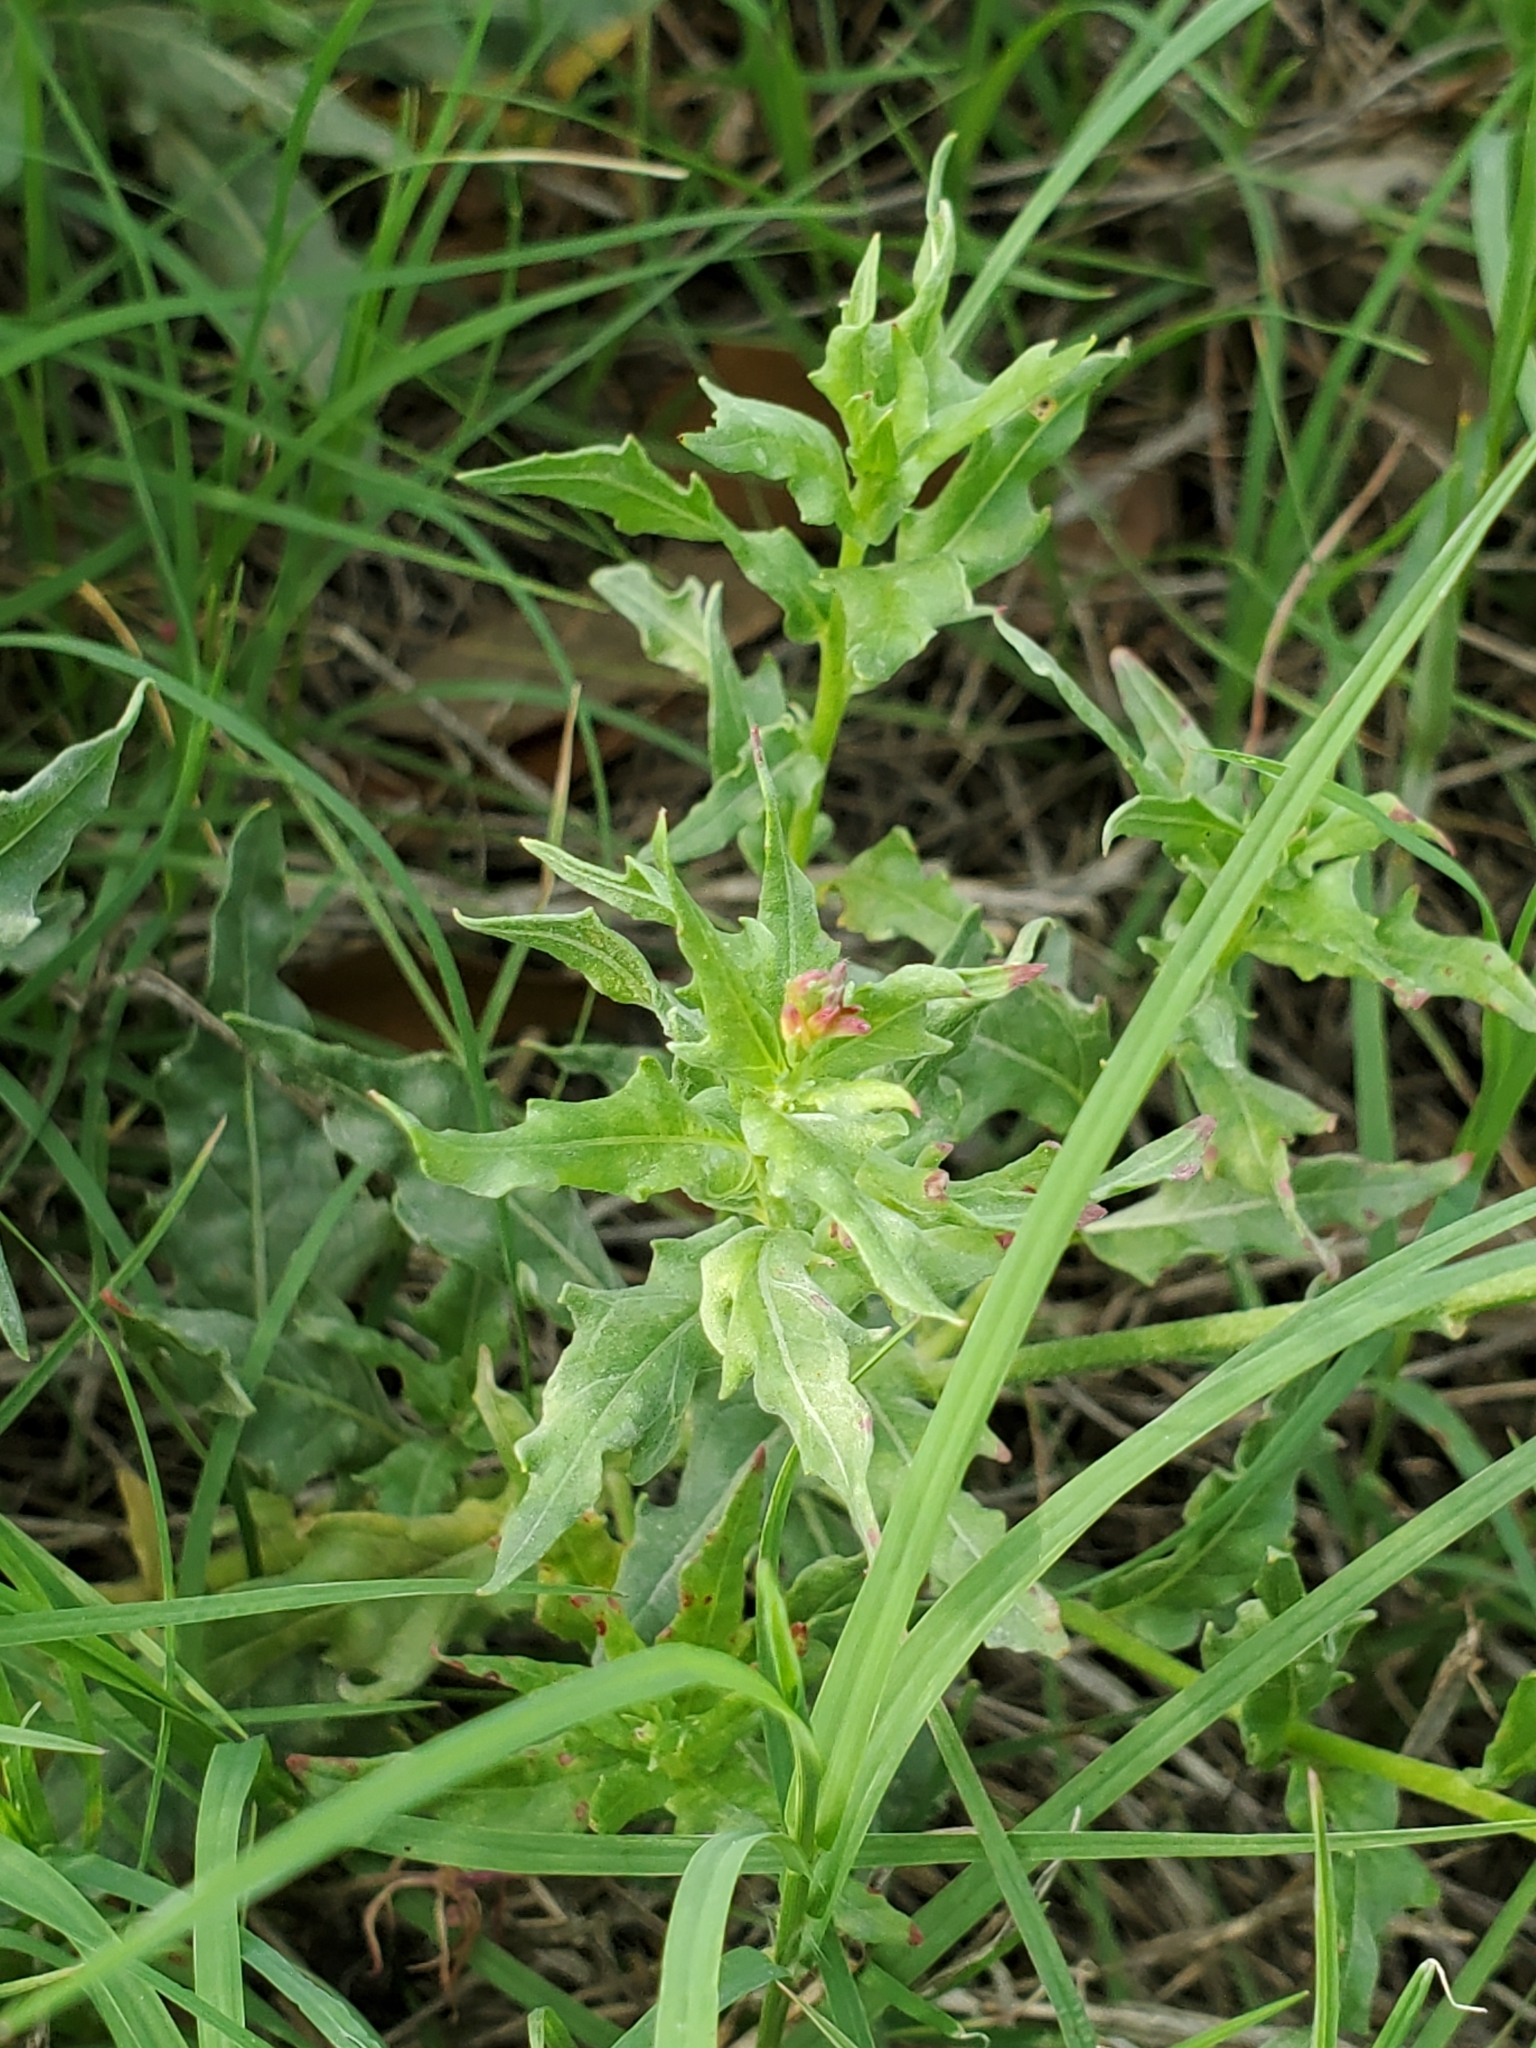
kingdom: Plantae
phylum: Tracheophyta
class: Magnoliopsida
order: Myrtales
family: Onagraceae
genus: Oenothera
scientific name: Oenothera suffulta
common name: Kisses
